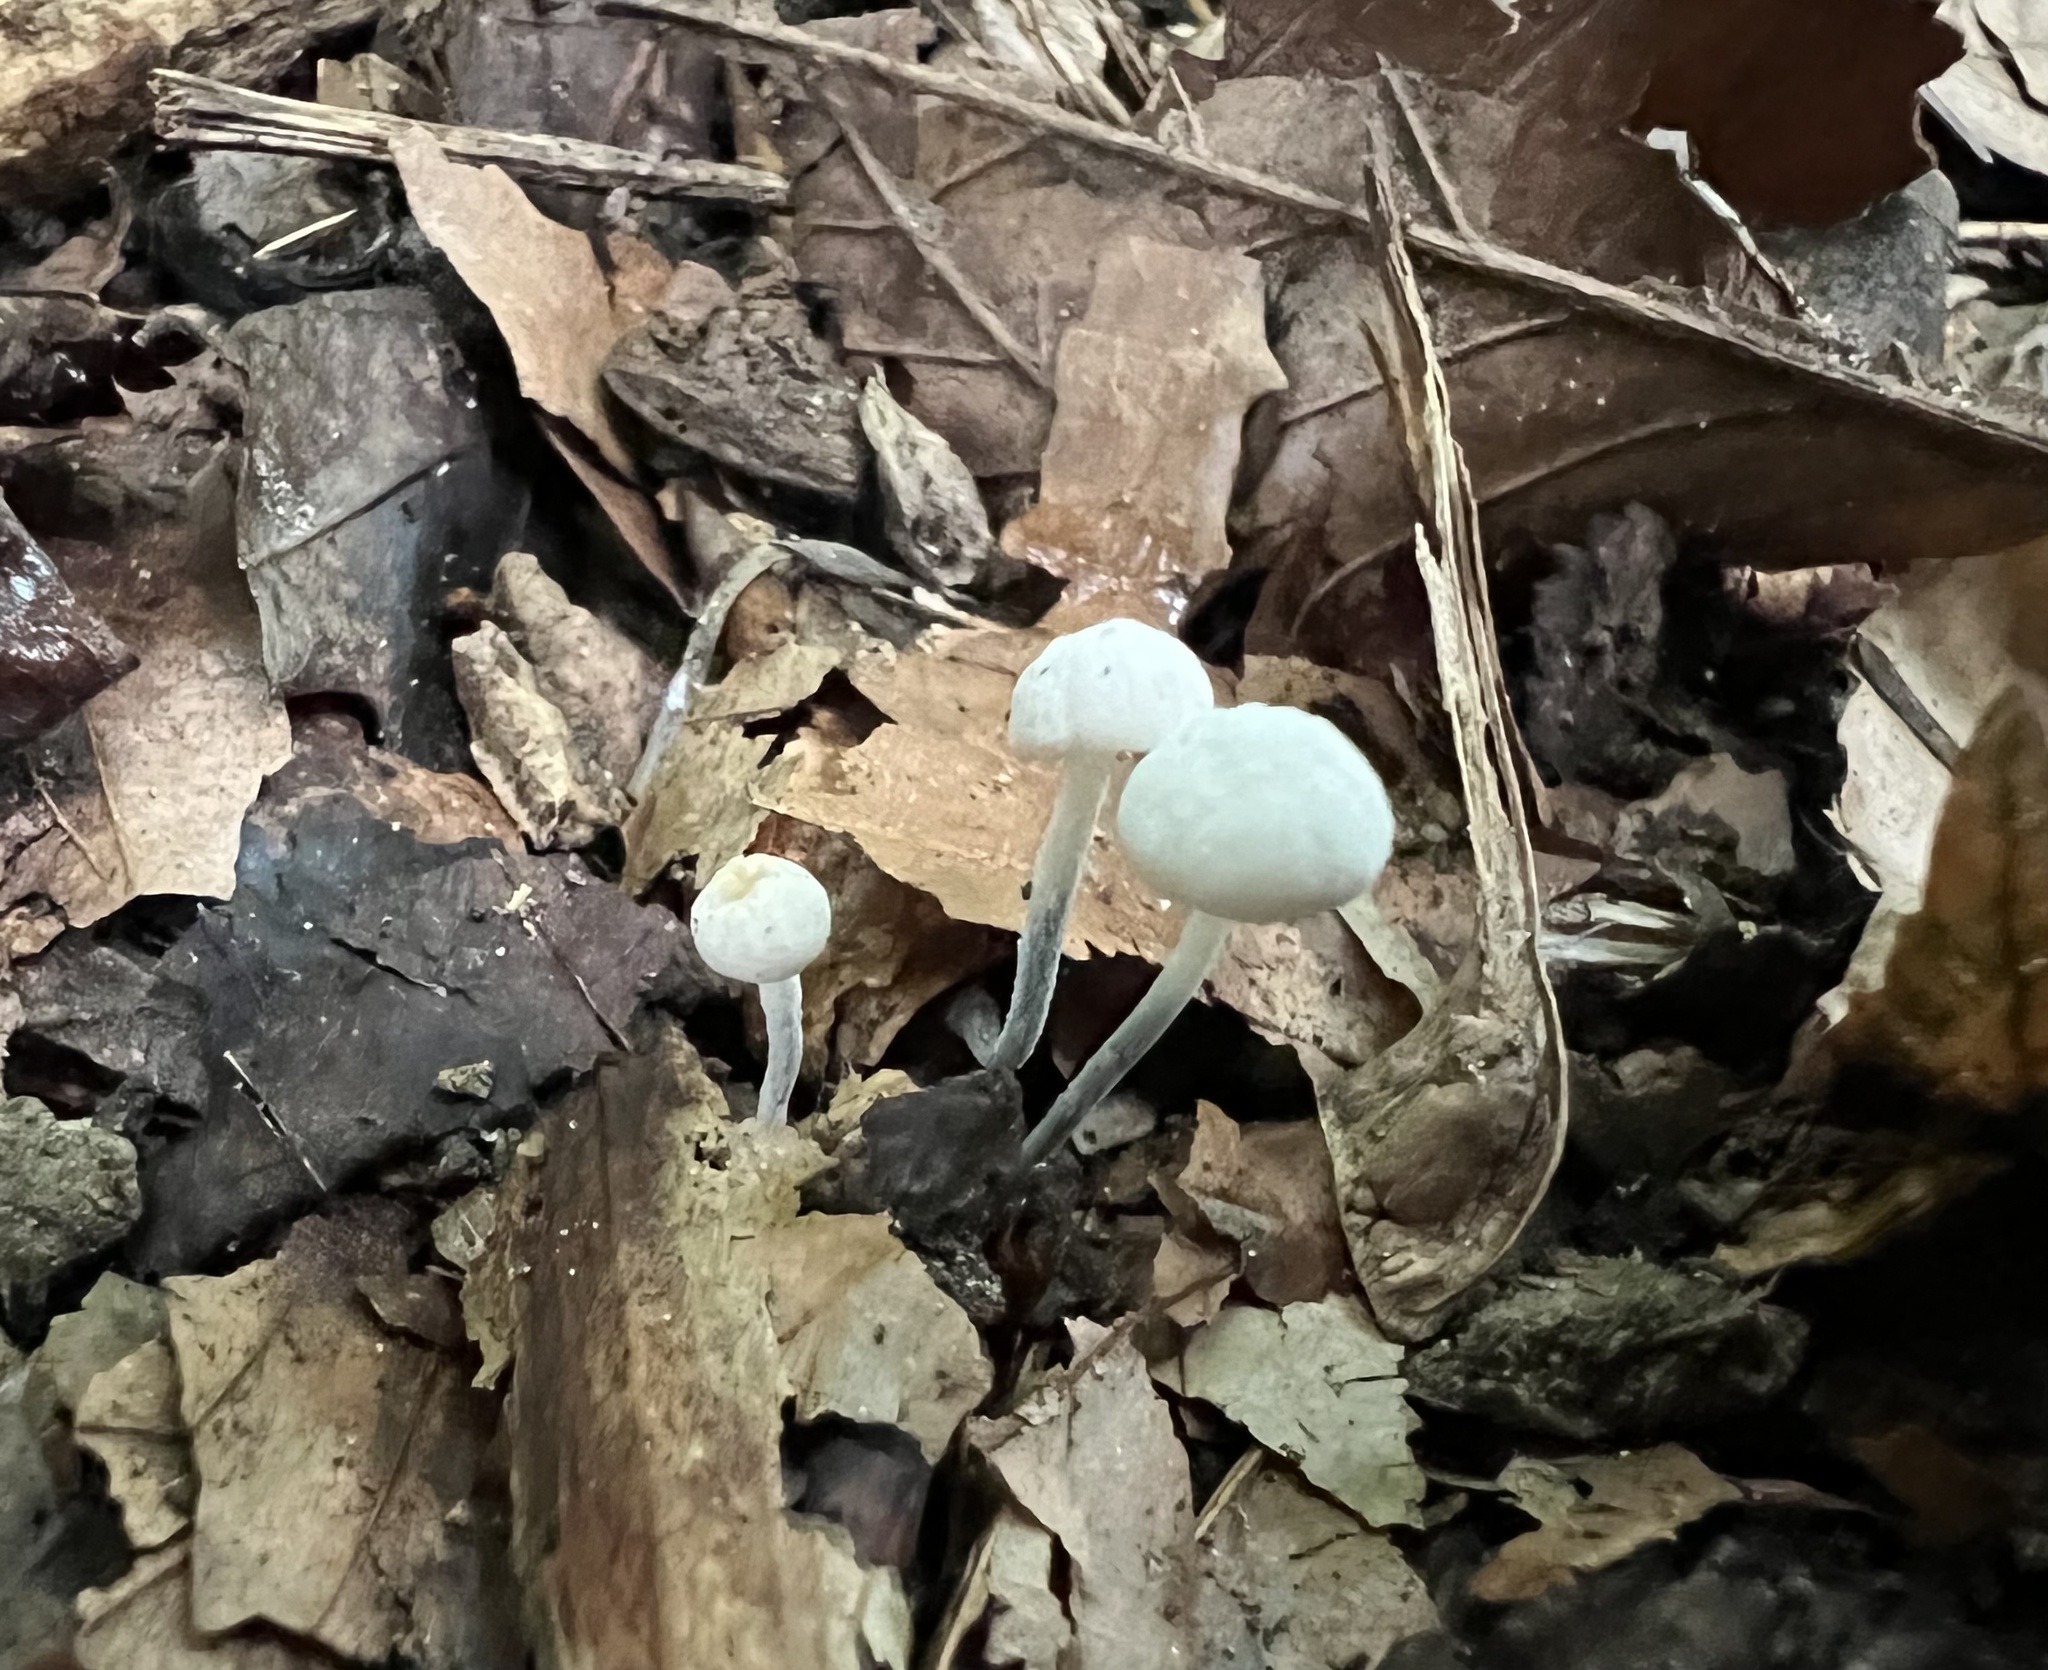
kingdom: Fungi
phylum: Basidiomycota
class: Agaricomycetes
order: Agaricales
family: Marasmiaceae
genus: Tetrapyrgos
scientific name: Tetrapyrgos nigripes
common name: Black-stalked marasmius
